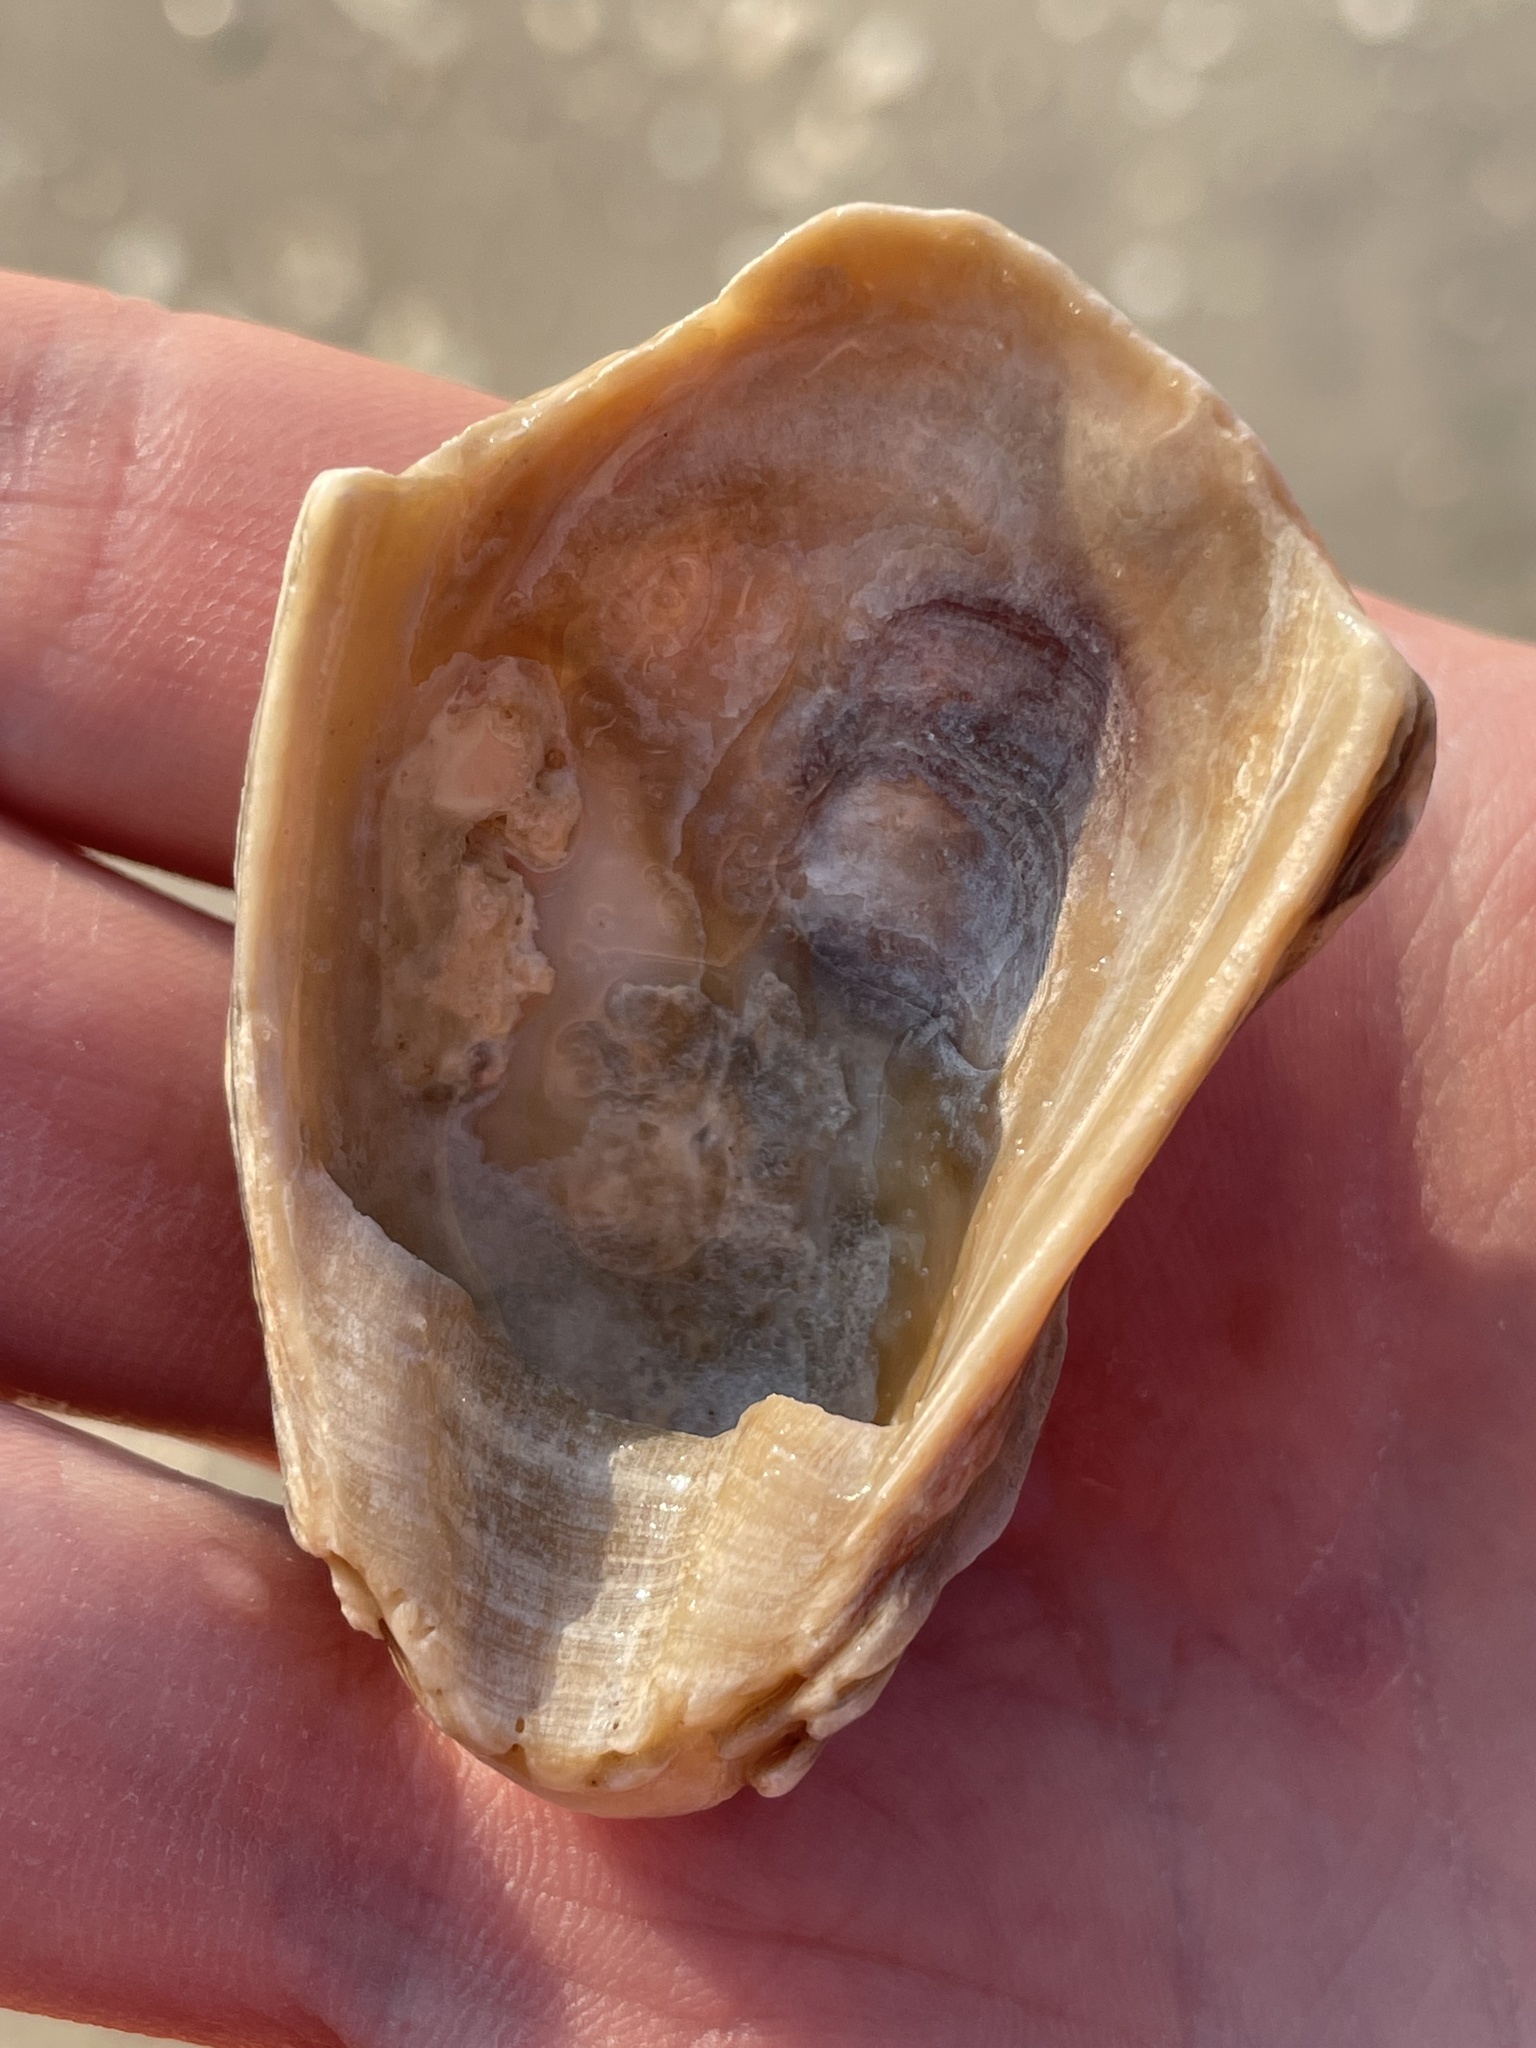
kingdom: Animalia
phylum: Mollusca
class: Bivalvia
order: Ostreida
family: Ostreidae
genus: Crassostrea
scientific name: Crassostrea virginica
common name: American oyster
